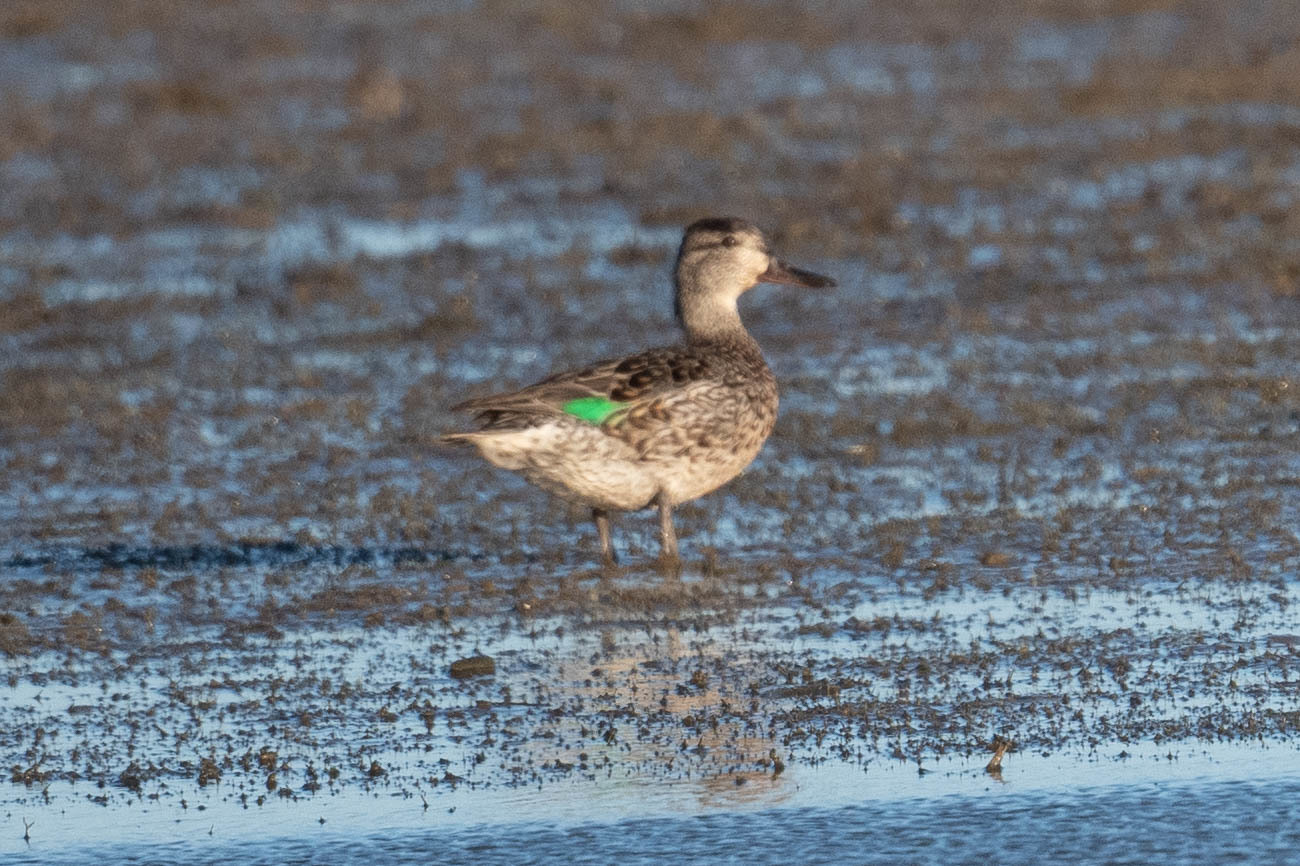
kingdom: Animalia
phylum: Chordata
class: Aves
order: Anseriformes
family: Anatidae
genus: Anas
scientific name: Anas crecca
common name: Eurasian teal
